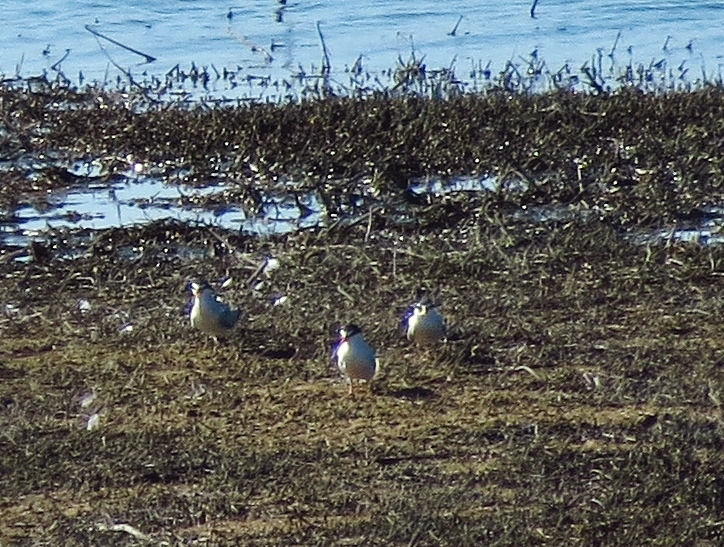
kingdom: Animalia
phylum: Chordata
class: Aves
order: Charadriiformes
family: Laridae
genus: Sternula
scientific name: Sternula antillarum
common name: Least tern
